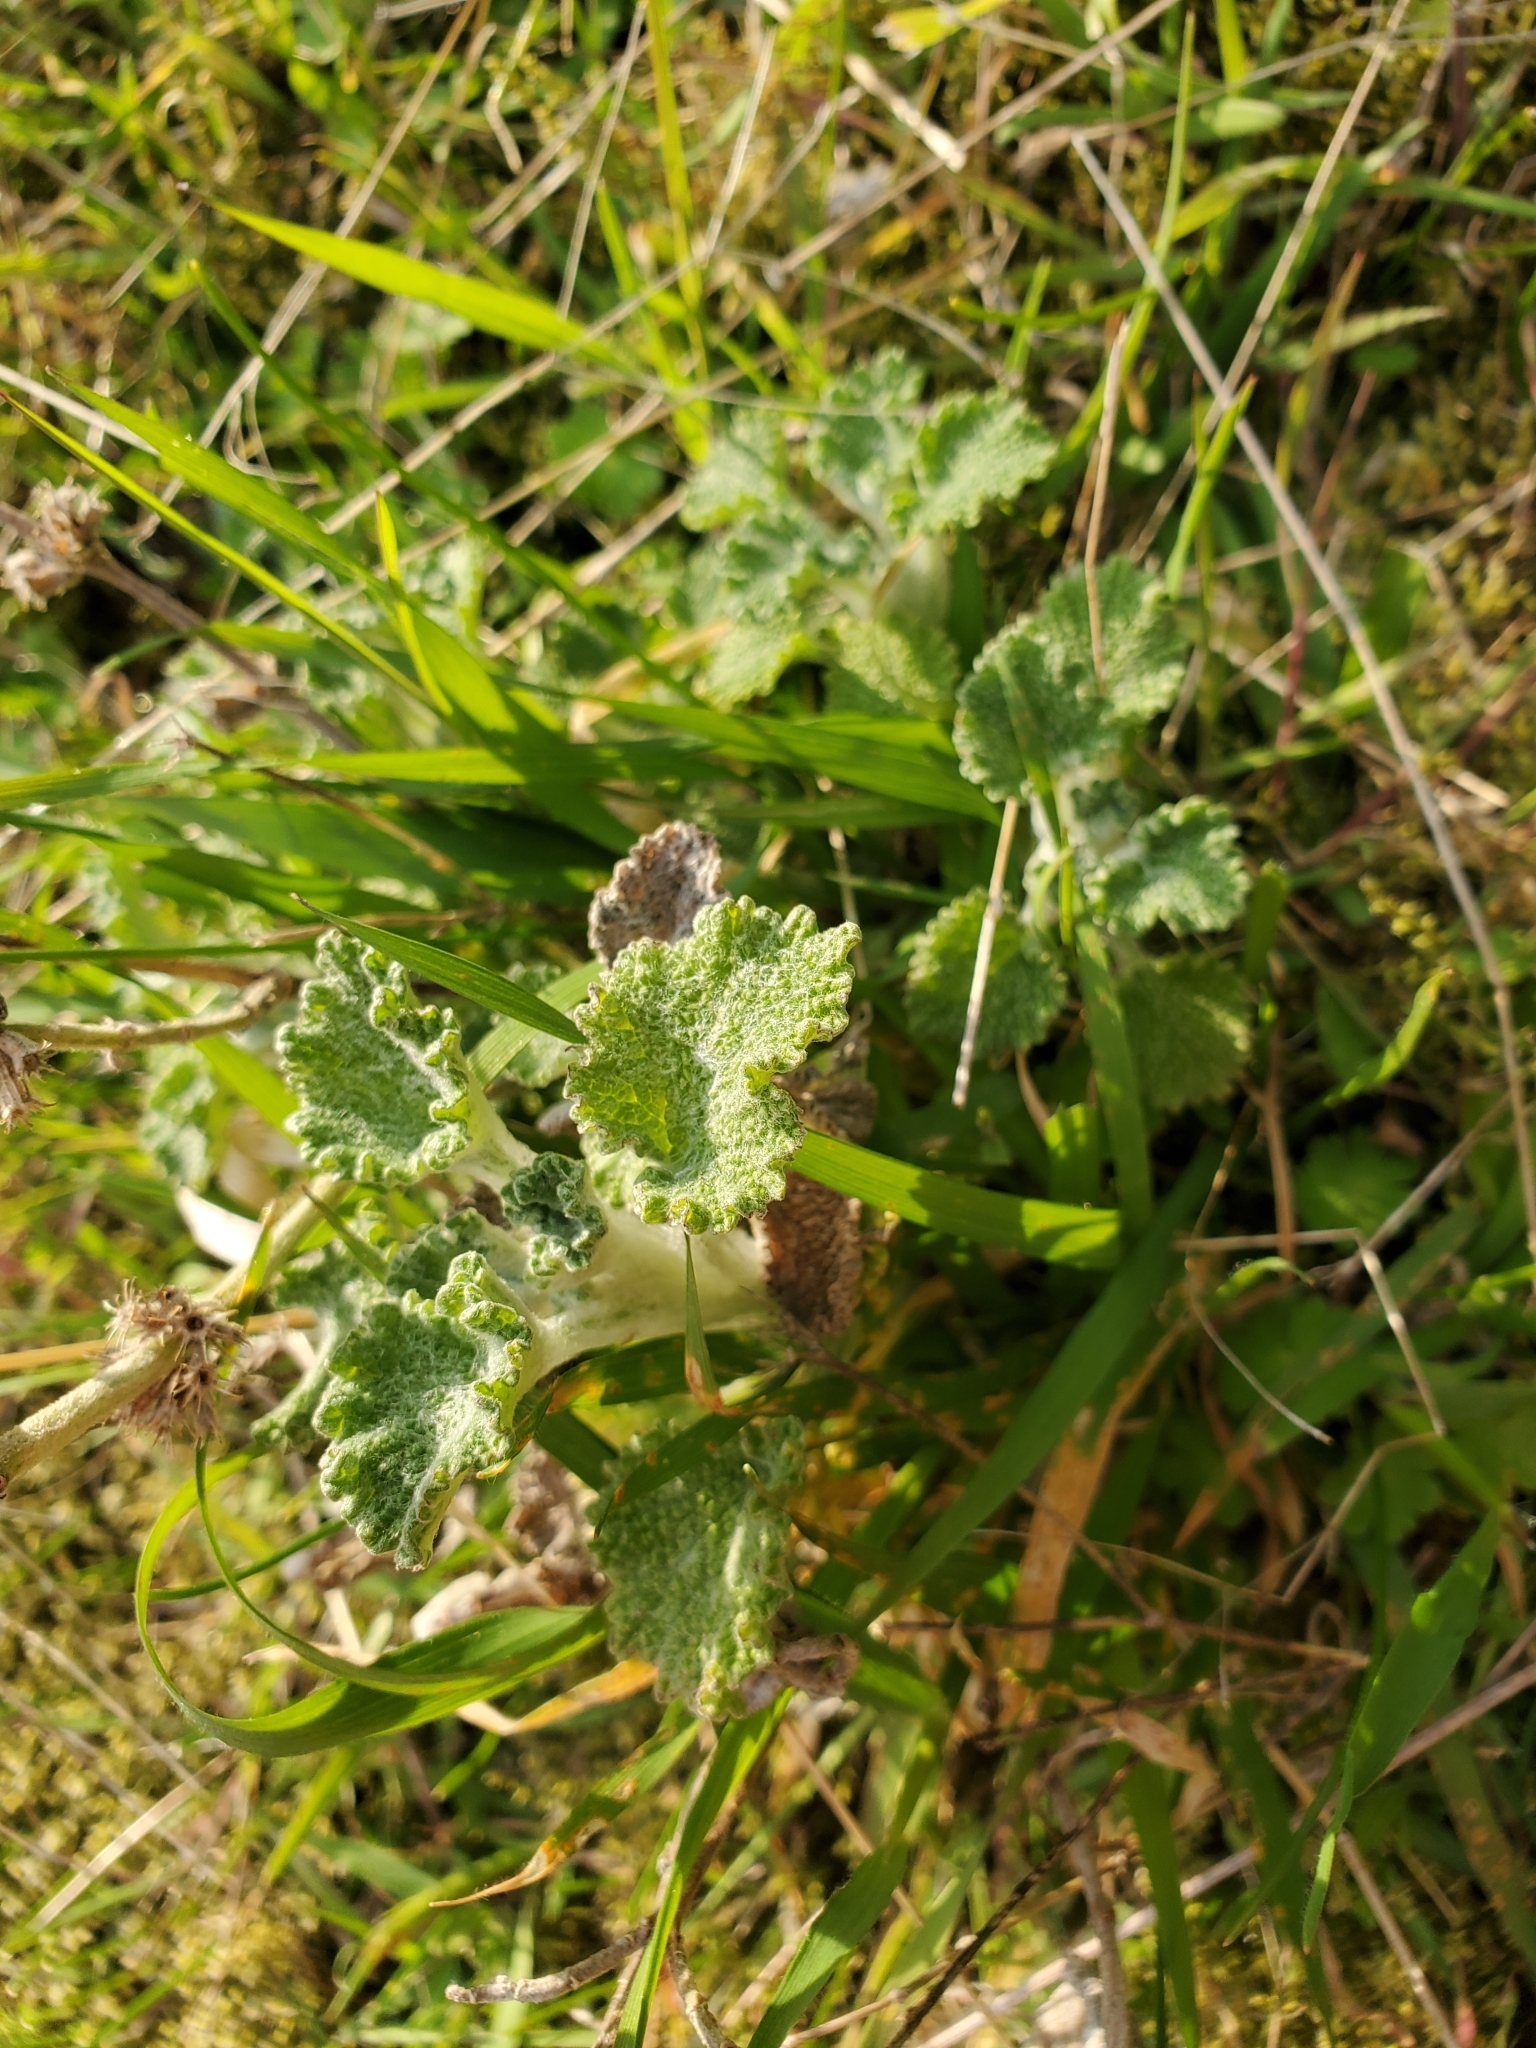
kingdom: Plantae
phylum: Tracheophyta
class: Magnoliopsida
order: Lamiales
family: Lamiaceae
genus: Marrubium
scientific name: Marrubium vulgare
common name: Horehound
